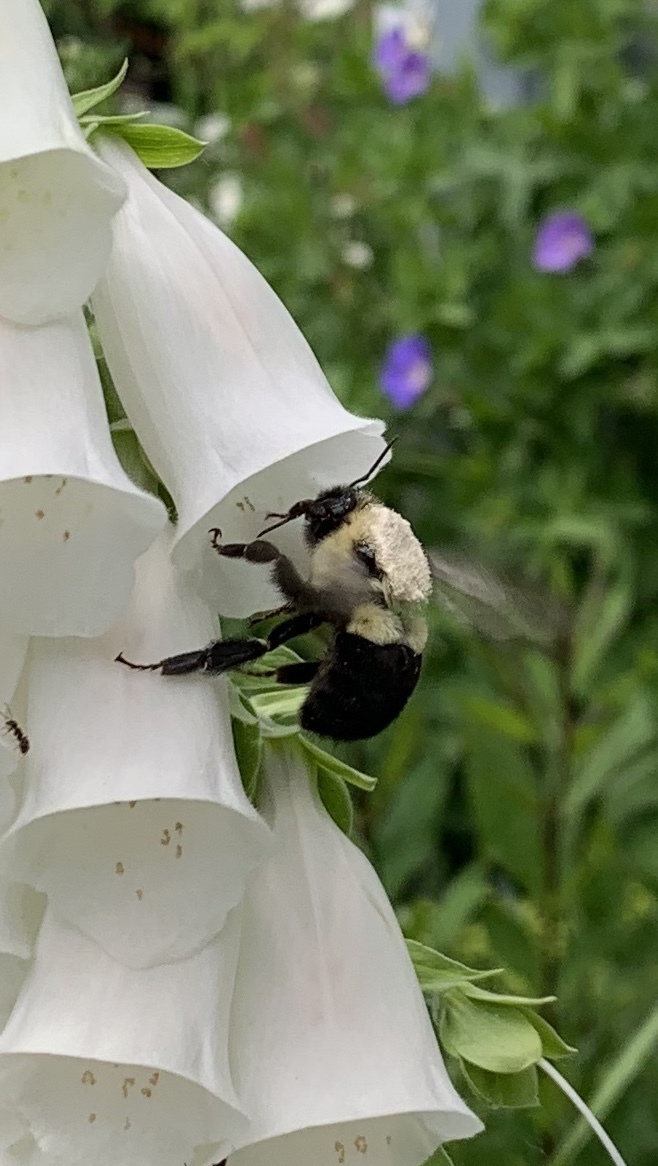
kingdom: Animalia
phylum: Arthropoda
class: Insecta
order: Hymenoptera
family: Apidae
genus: Bombus
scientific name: Bombus impatiens
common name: Common eastern bumble bee
